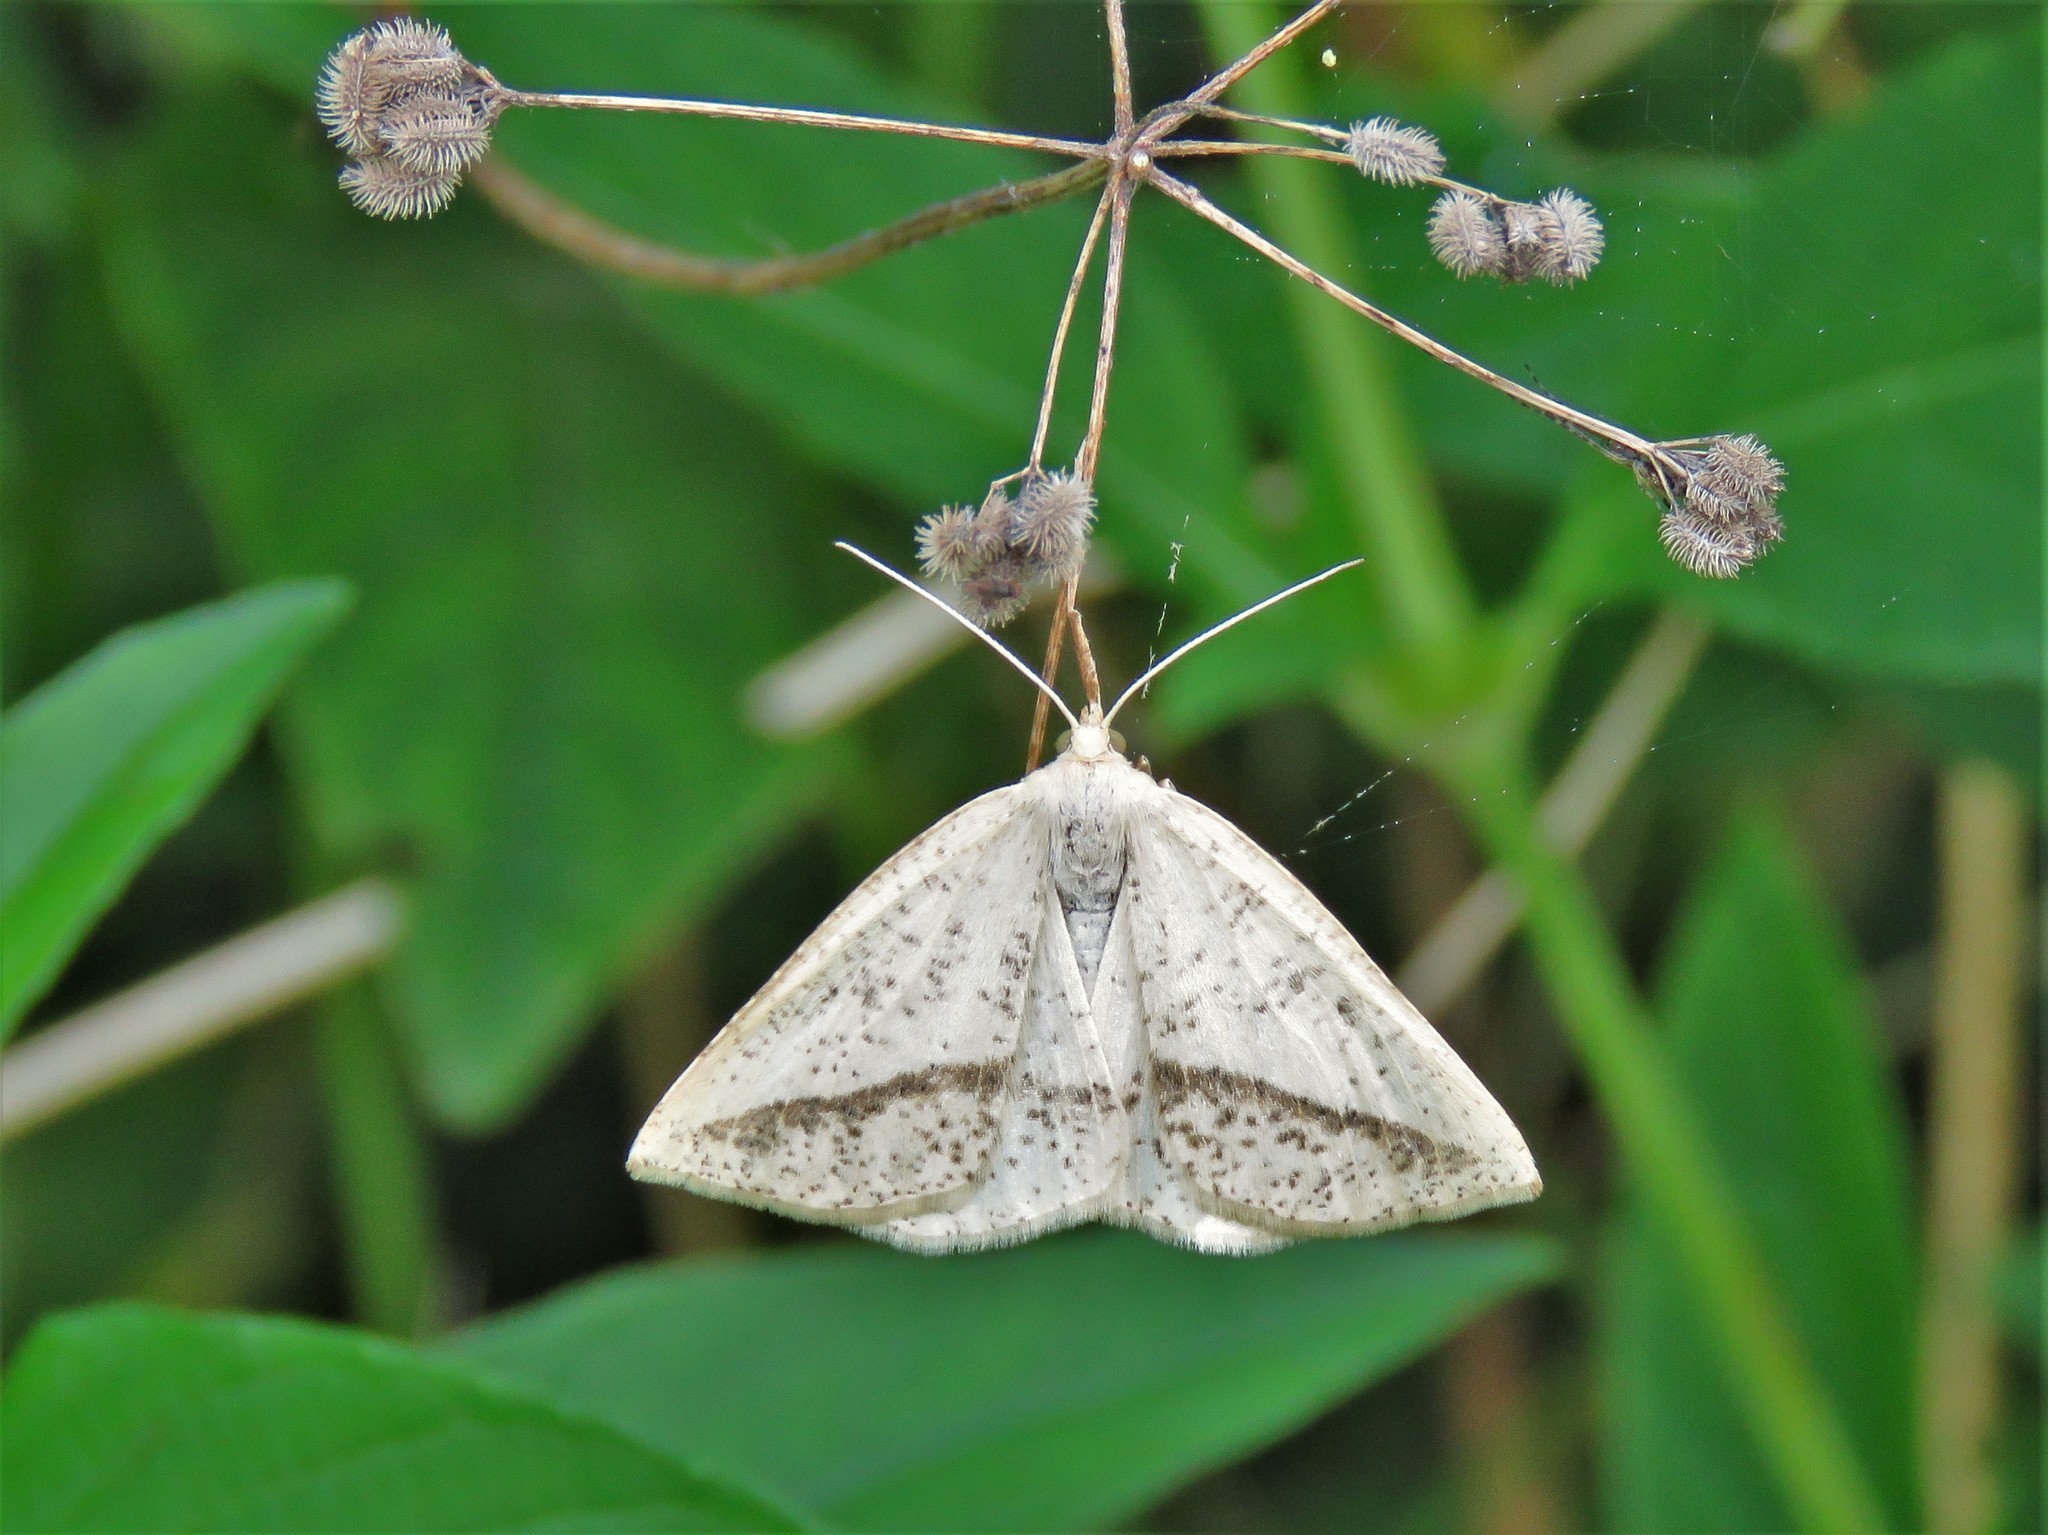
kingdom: Animalia
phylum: Arthropoda
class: Insecta
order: Lepidoptera
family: Geometridae
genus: Lychnosea
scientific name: Lychnosea intermicata
